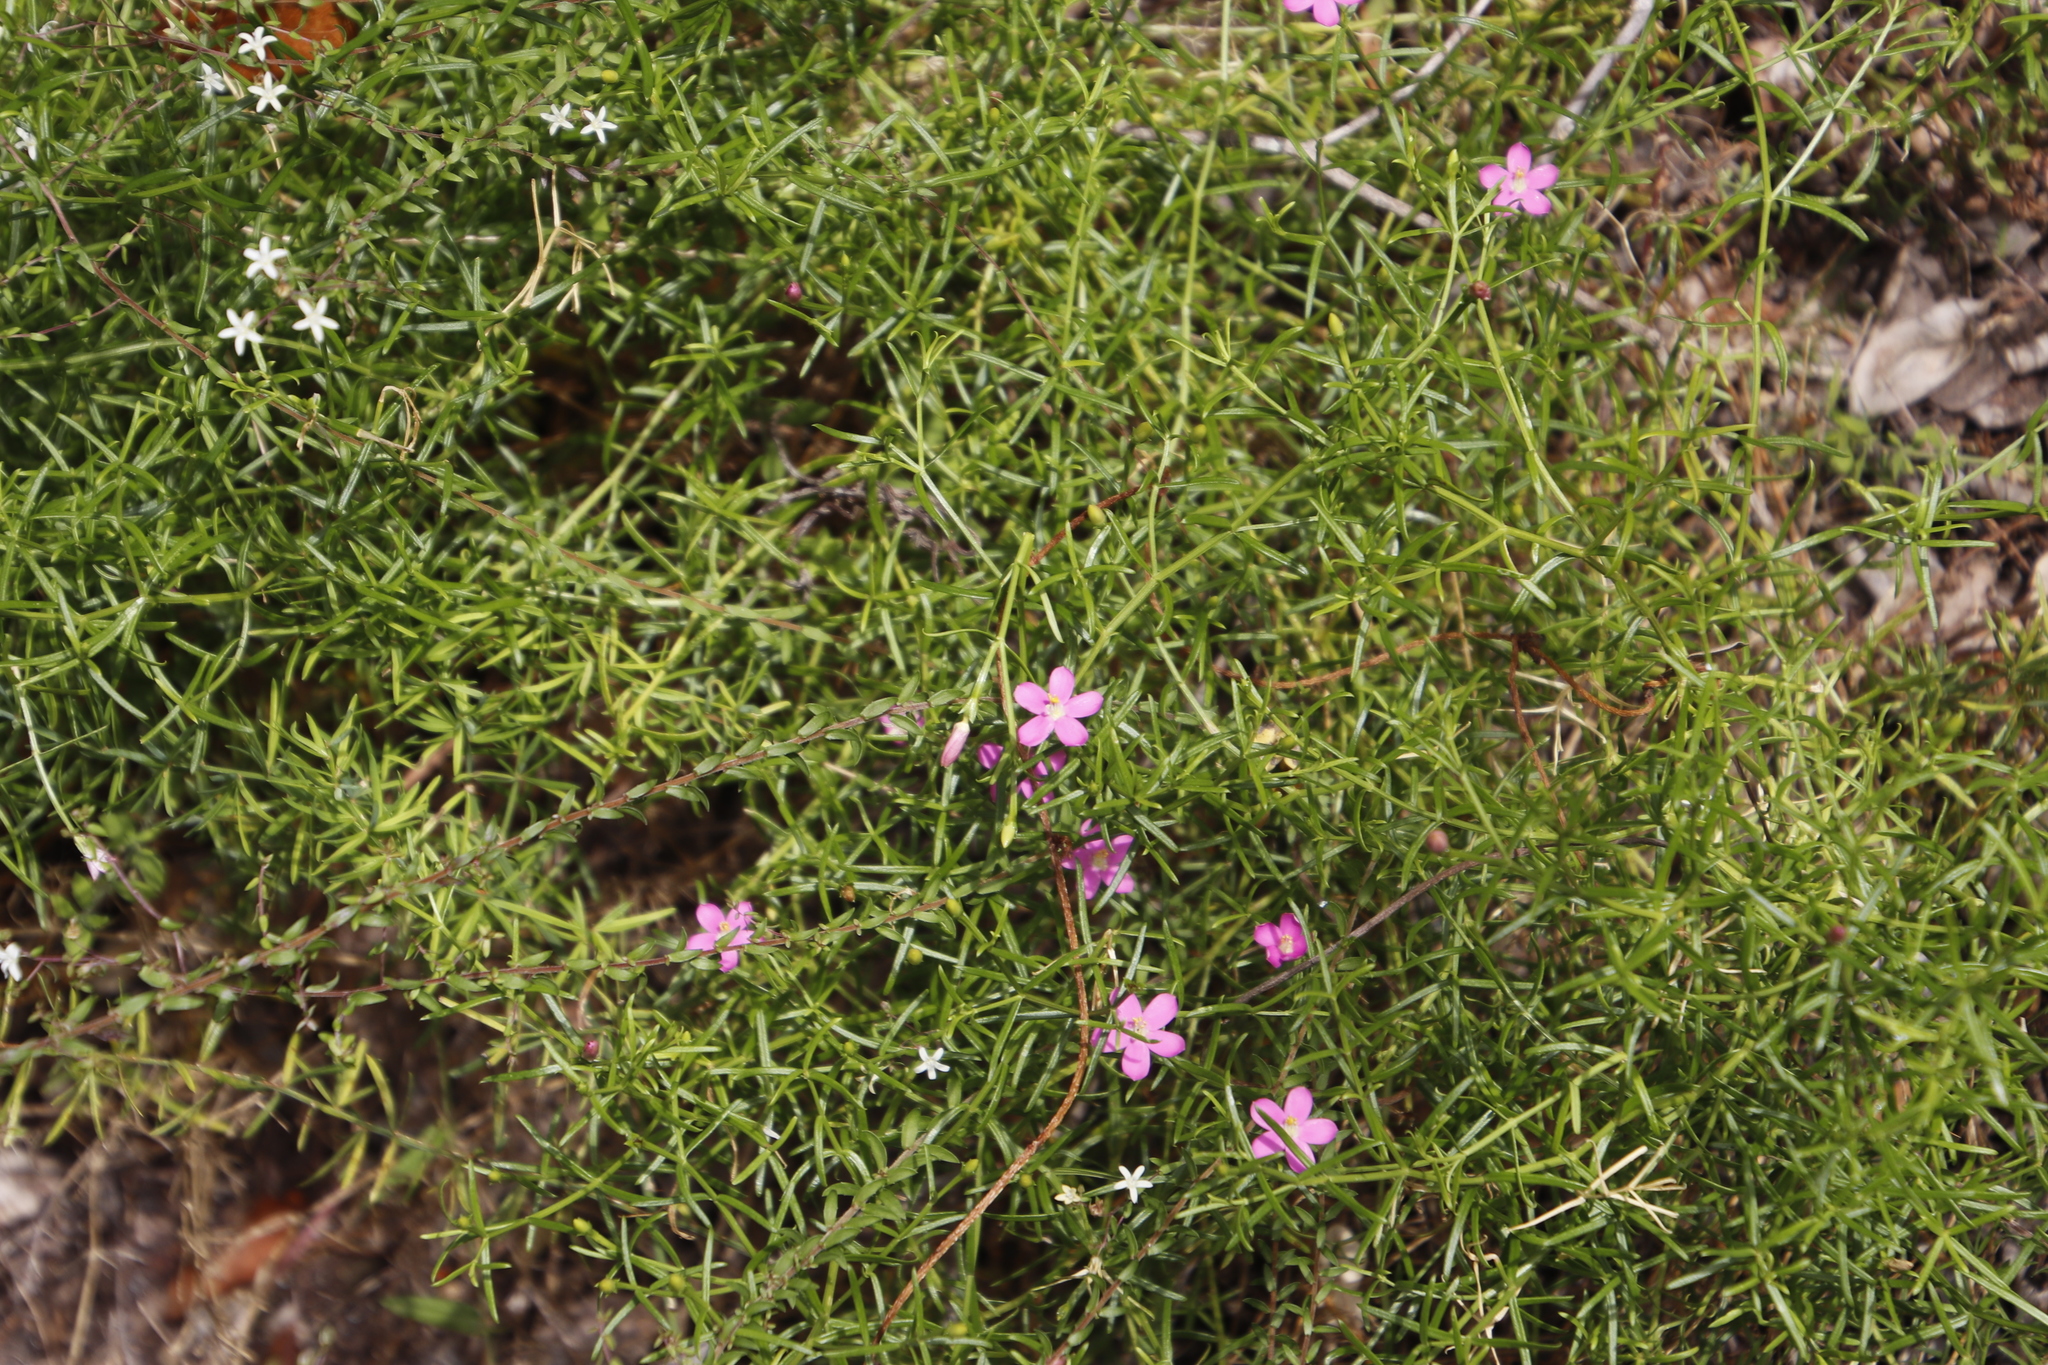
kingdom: Plantae
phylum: Tracheophyta
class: Magnoliopsida
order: Gentianales
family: Gentianaceae
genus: Chironia
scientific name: Chironia baccifera
